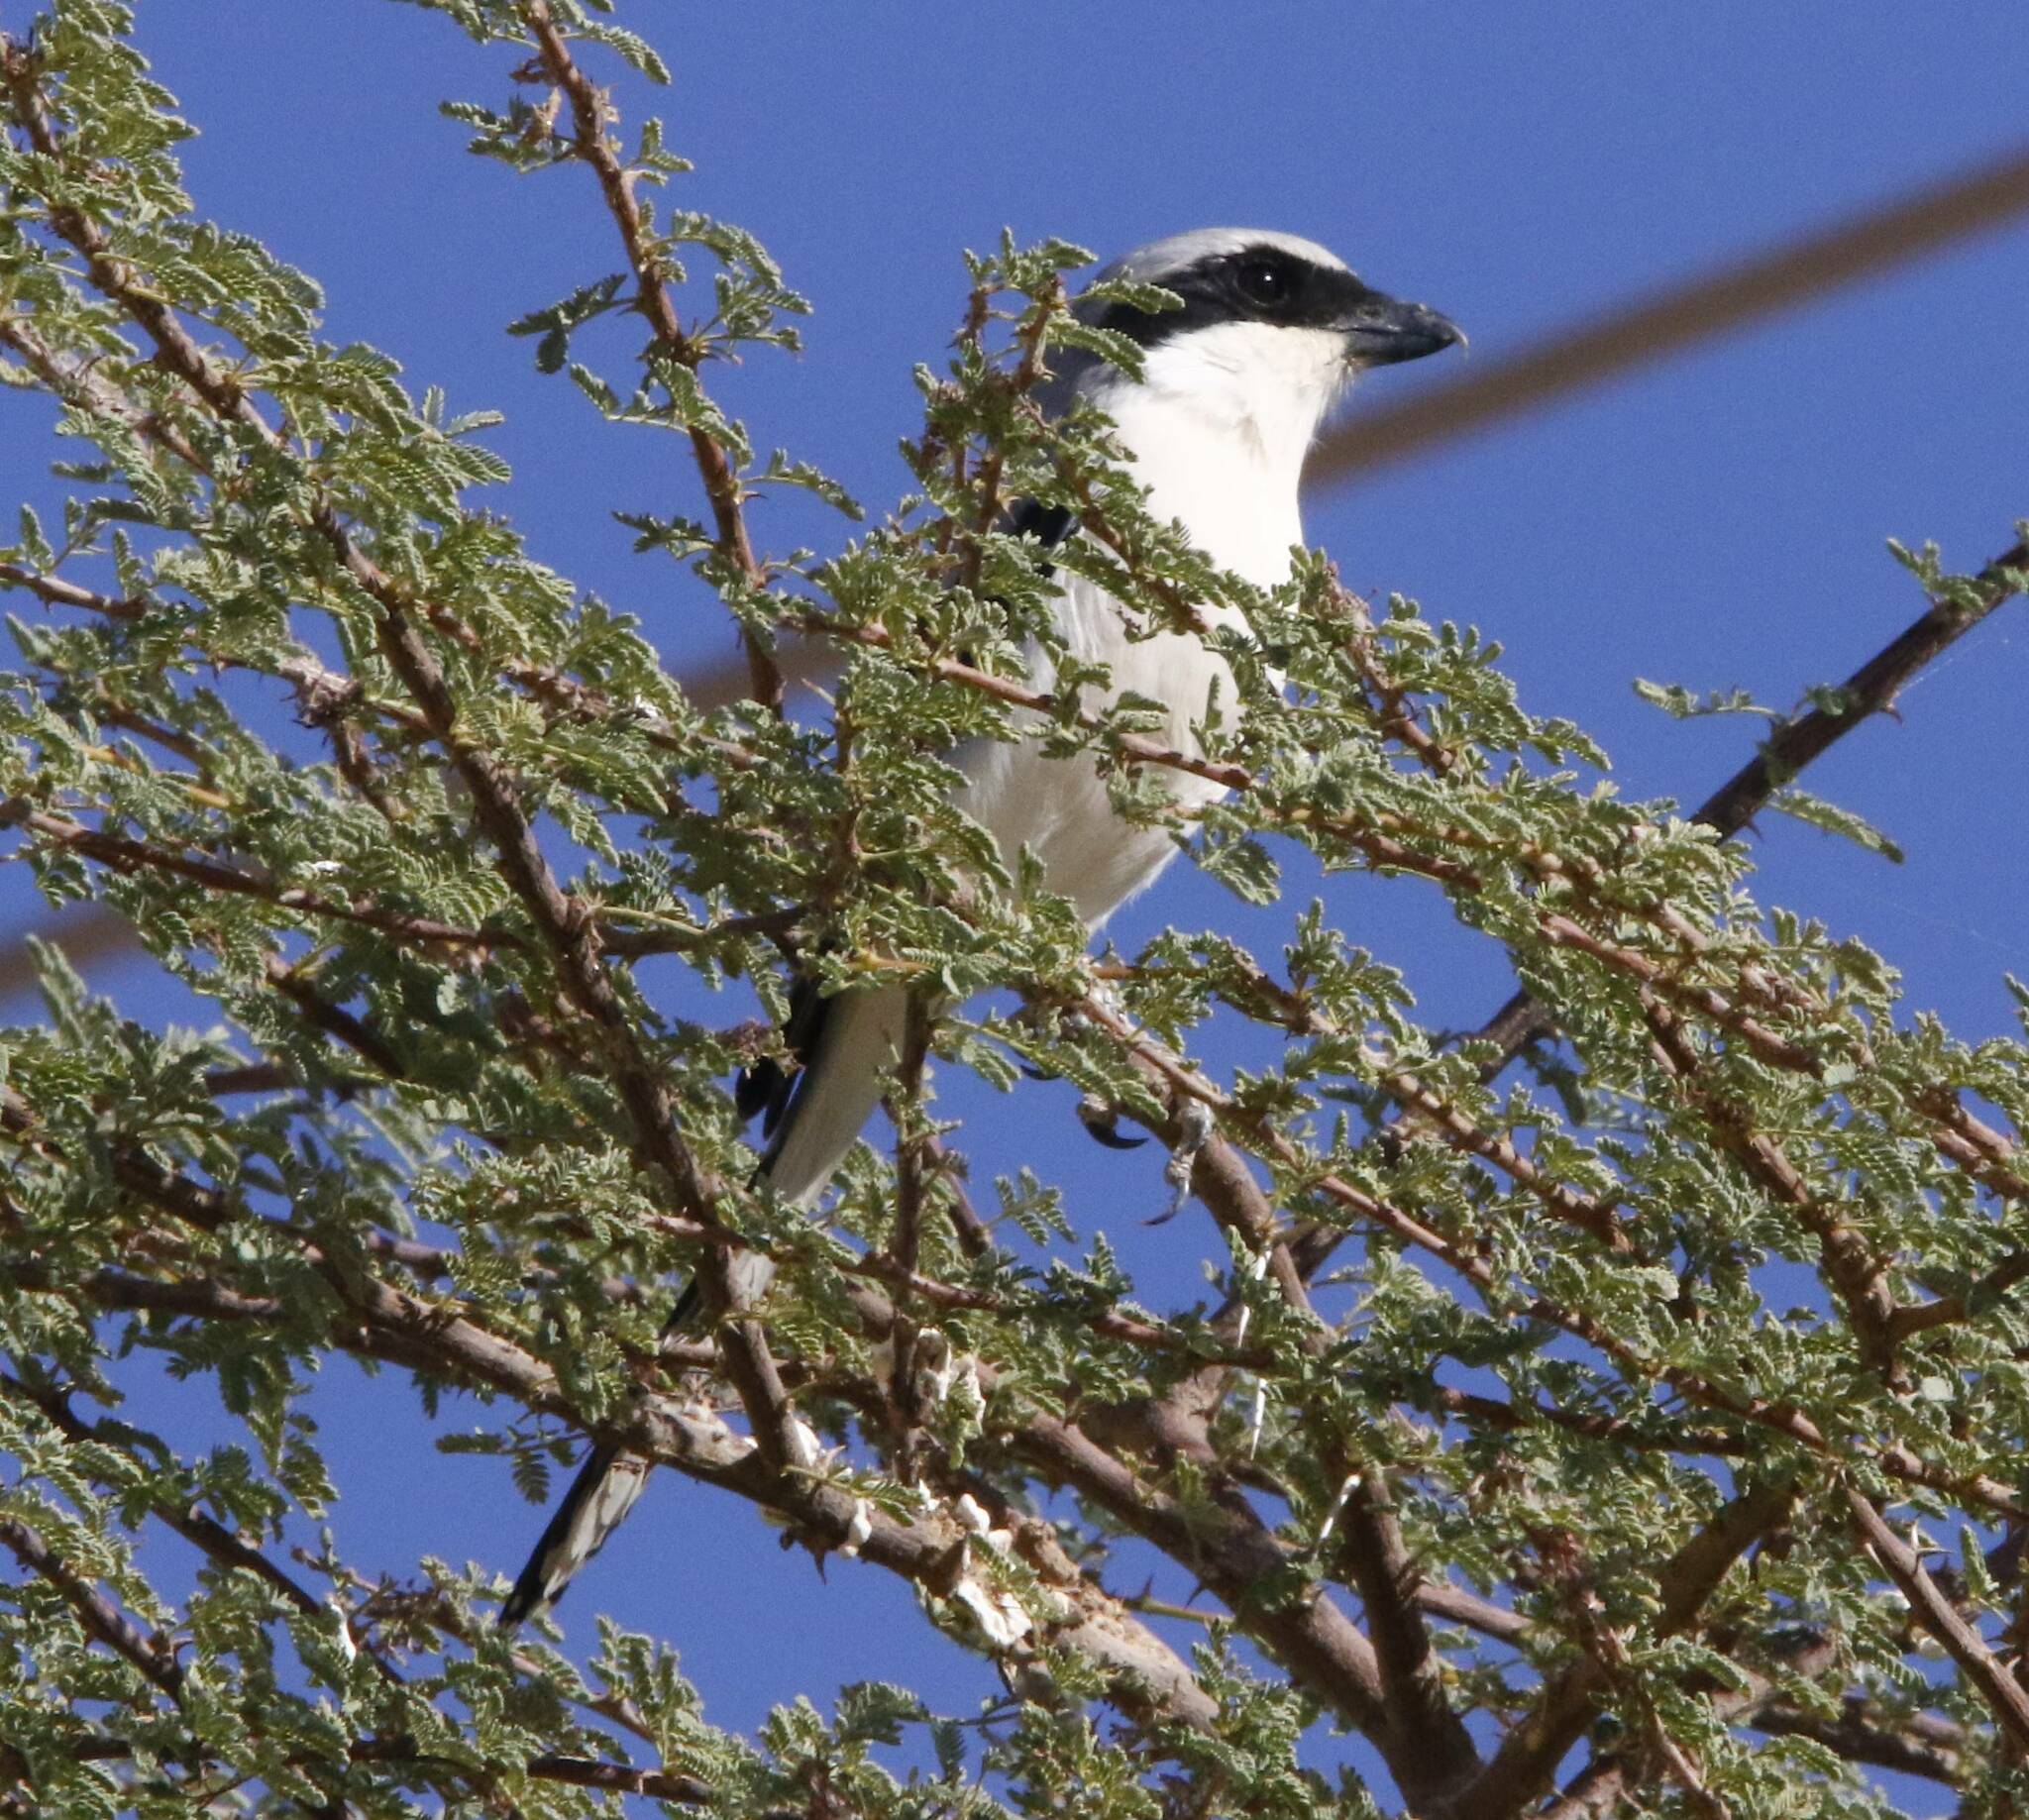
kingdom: Animalia
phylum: Chordata
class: Aves
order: Passeriformes
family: Laniidae
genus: Lanius
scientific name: Lanius excubitor
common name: Great grey shrike
